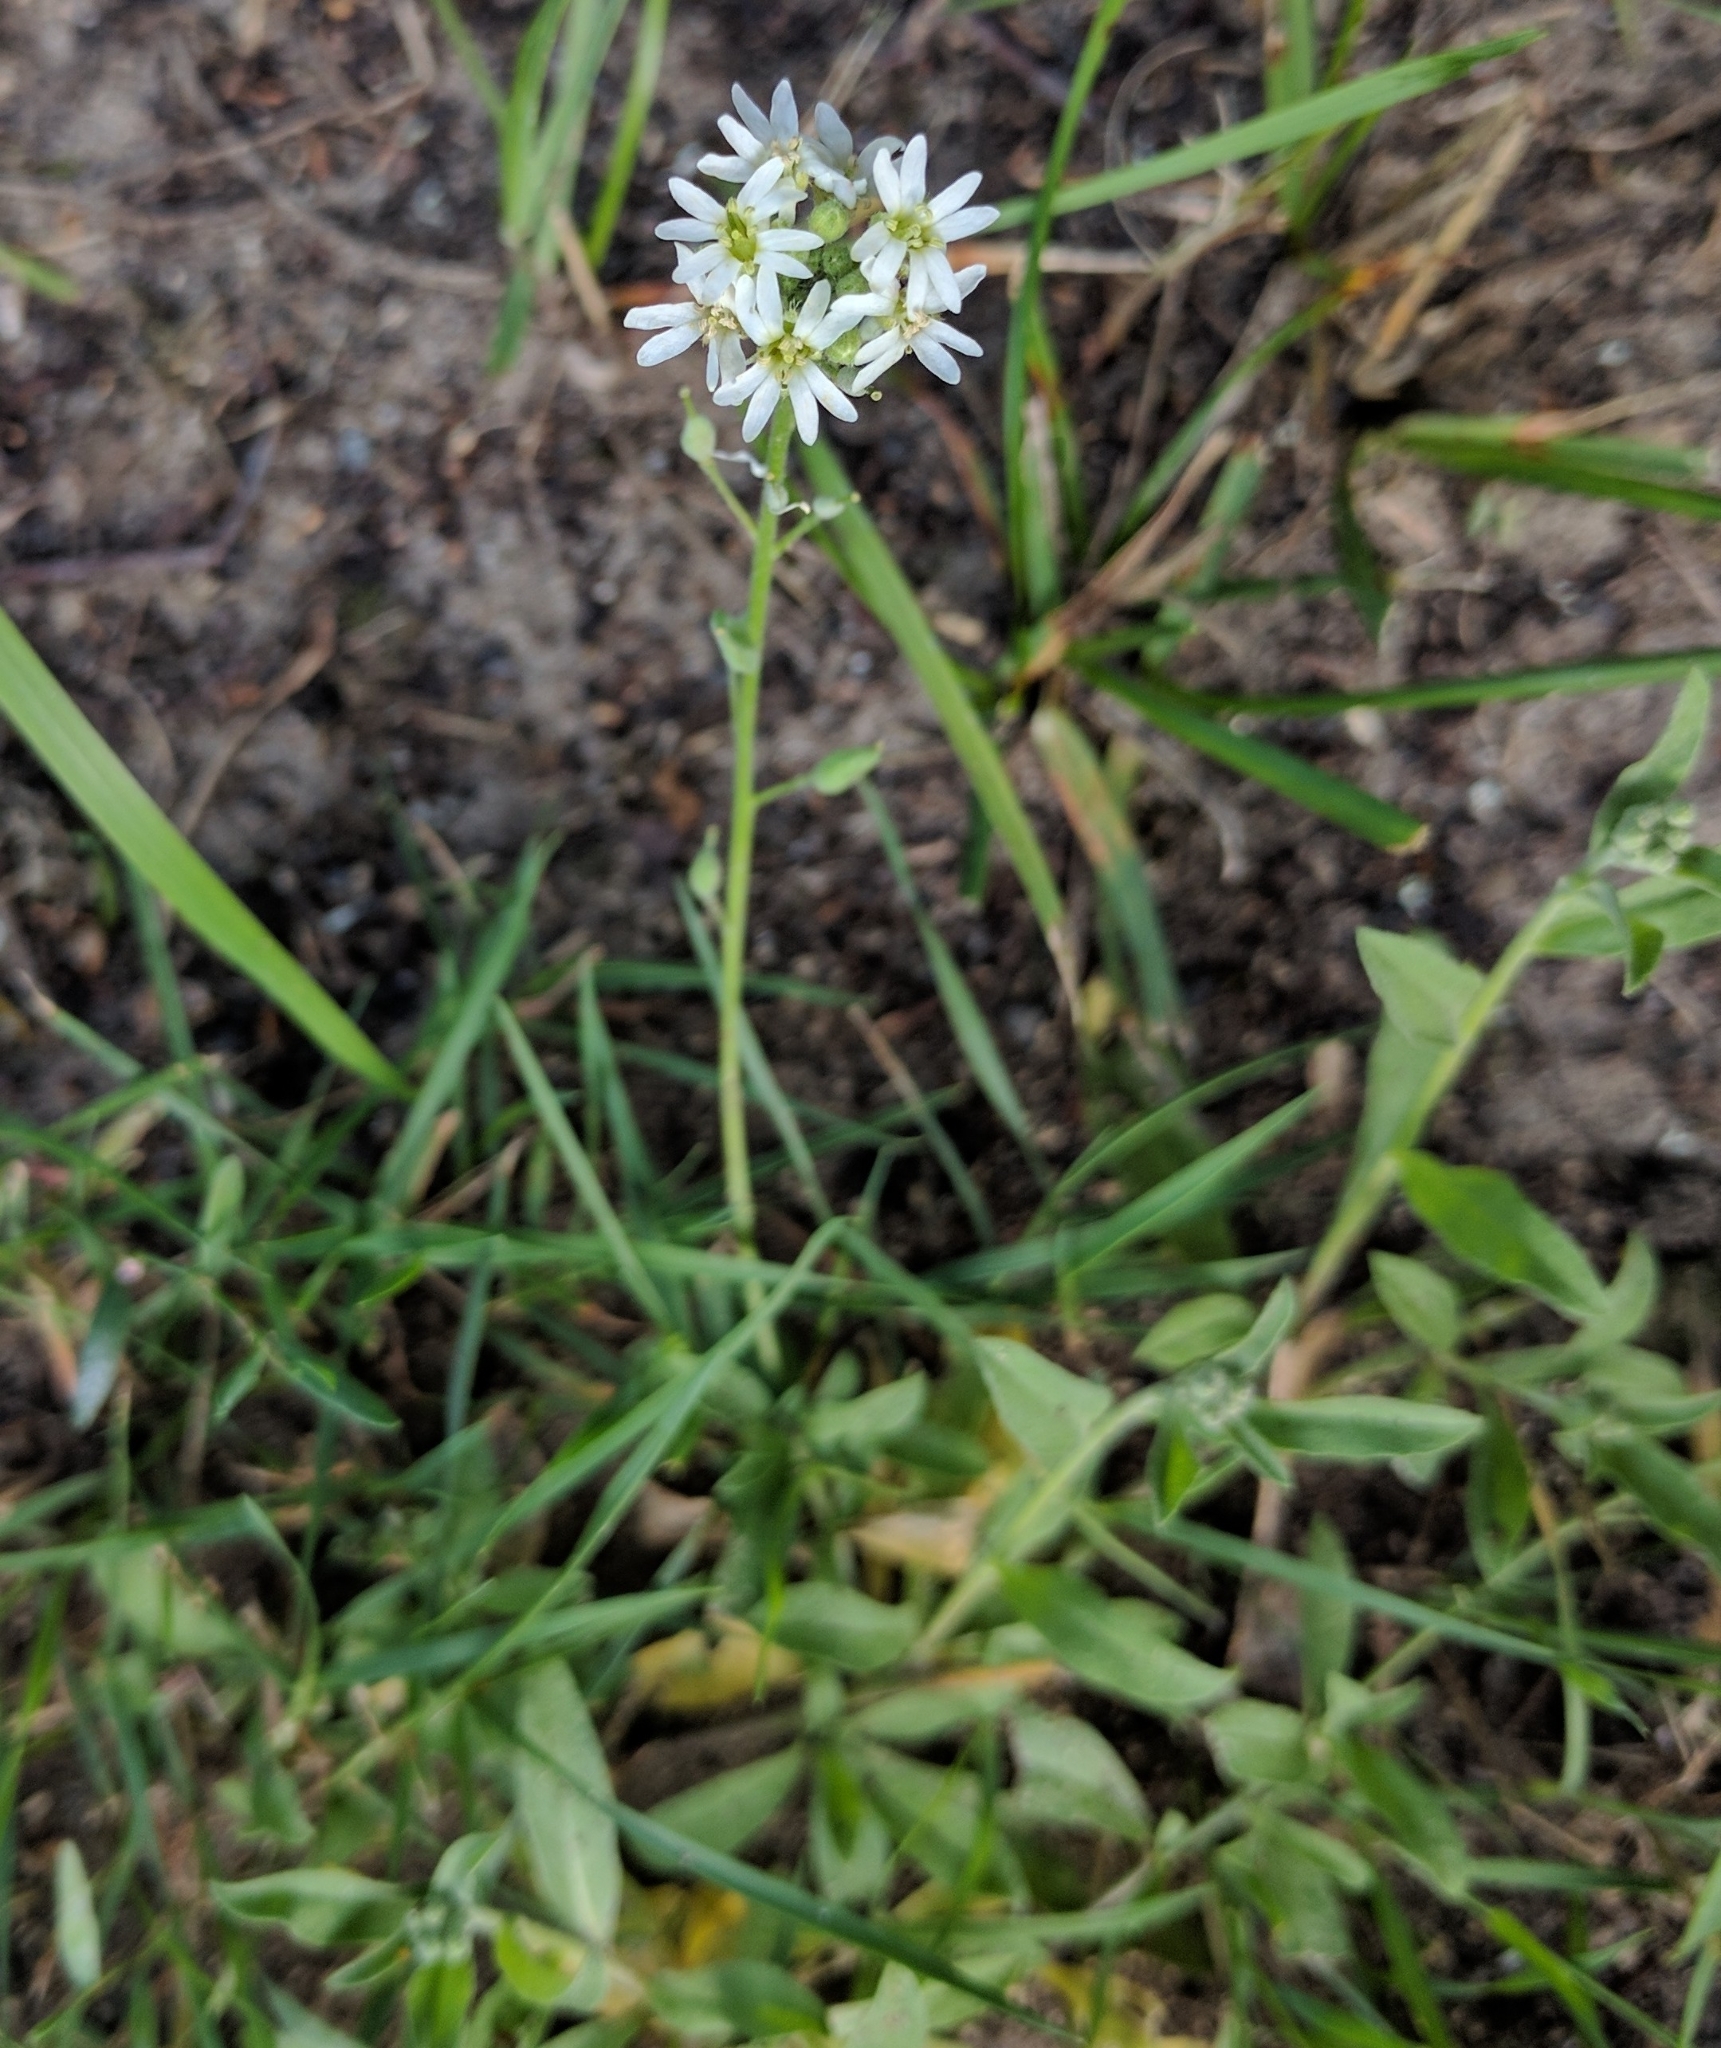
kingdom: Plantae
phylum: Tracheophyta
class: Magnoliopsida
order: Brassicales
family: Brassicaceae
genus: Berteroa
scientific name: Berteroa incana
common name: Hoary alison
